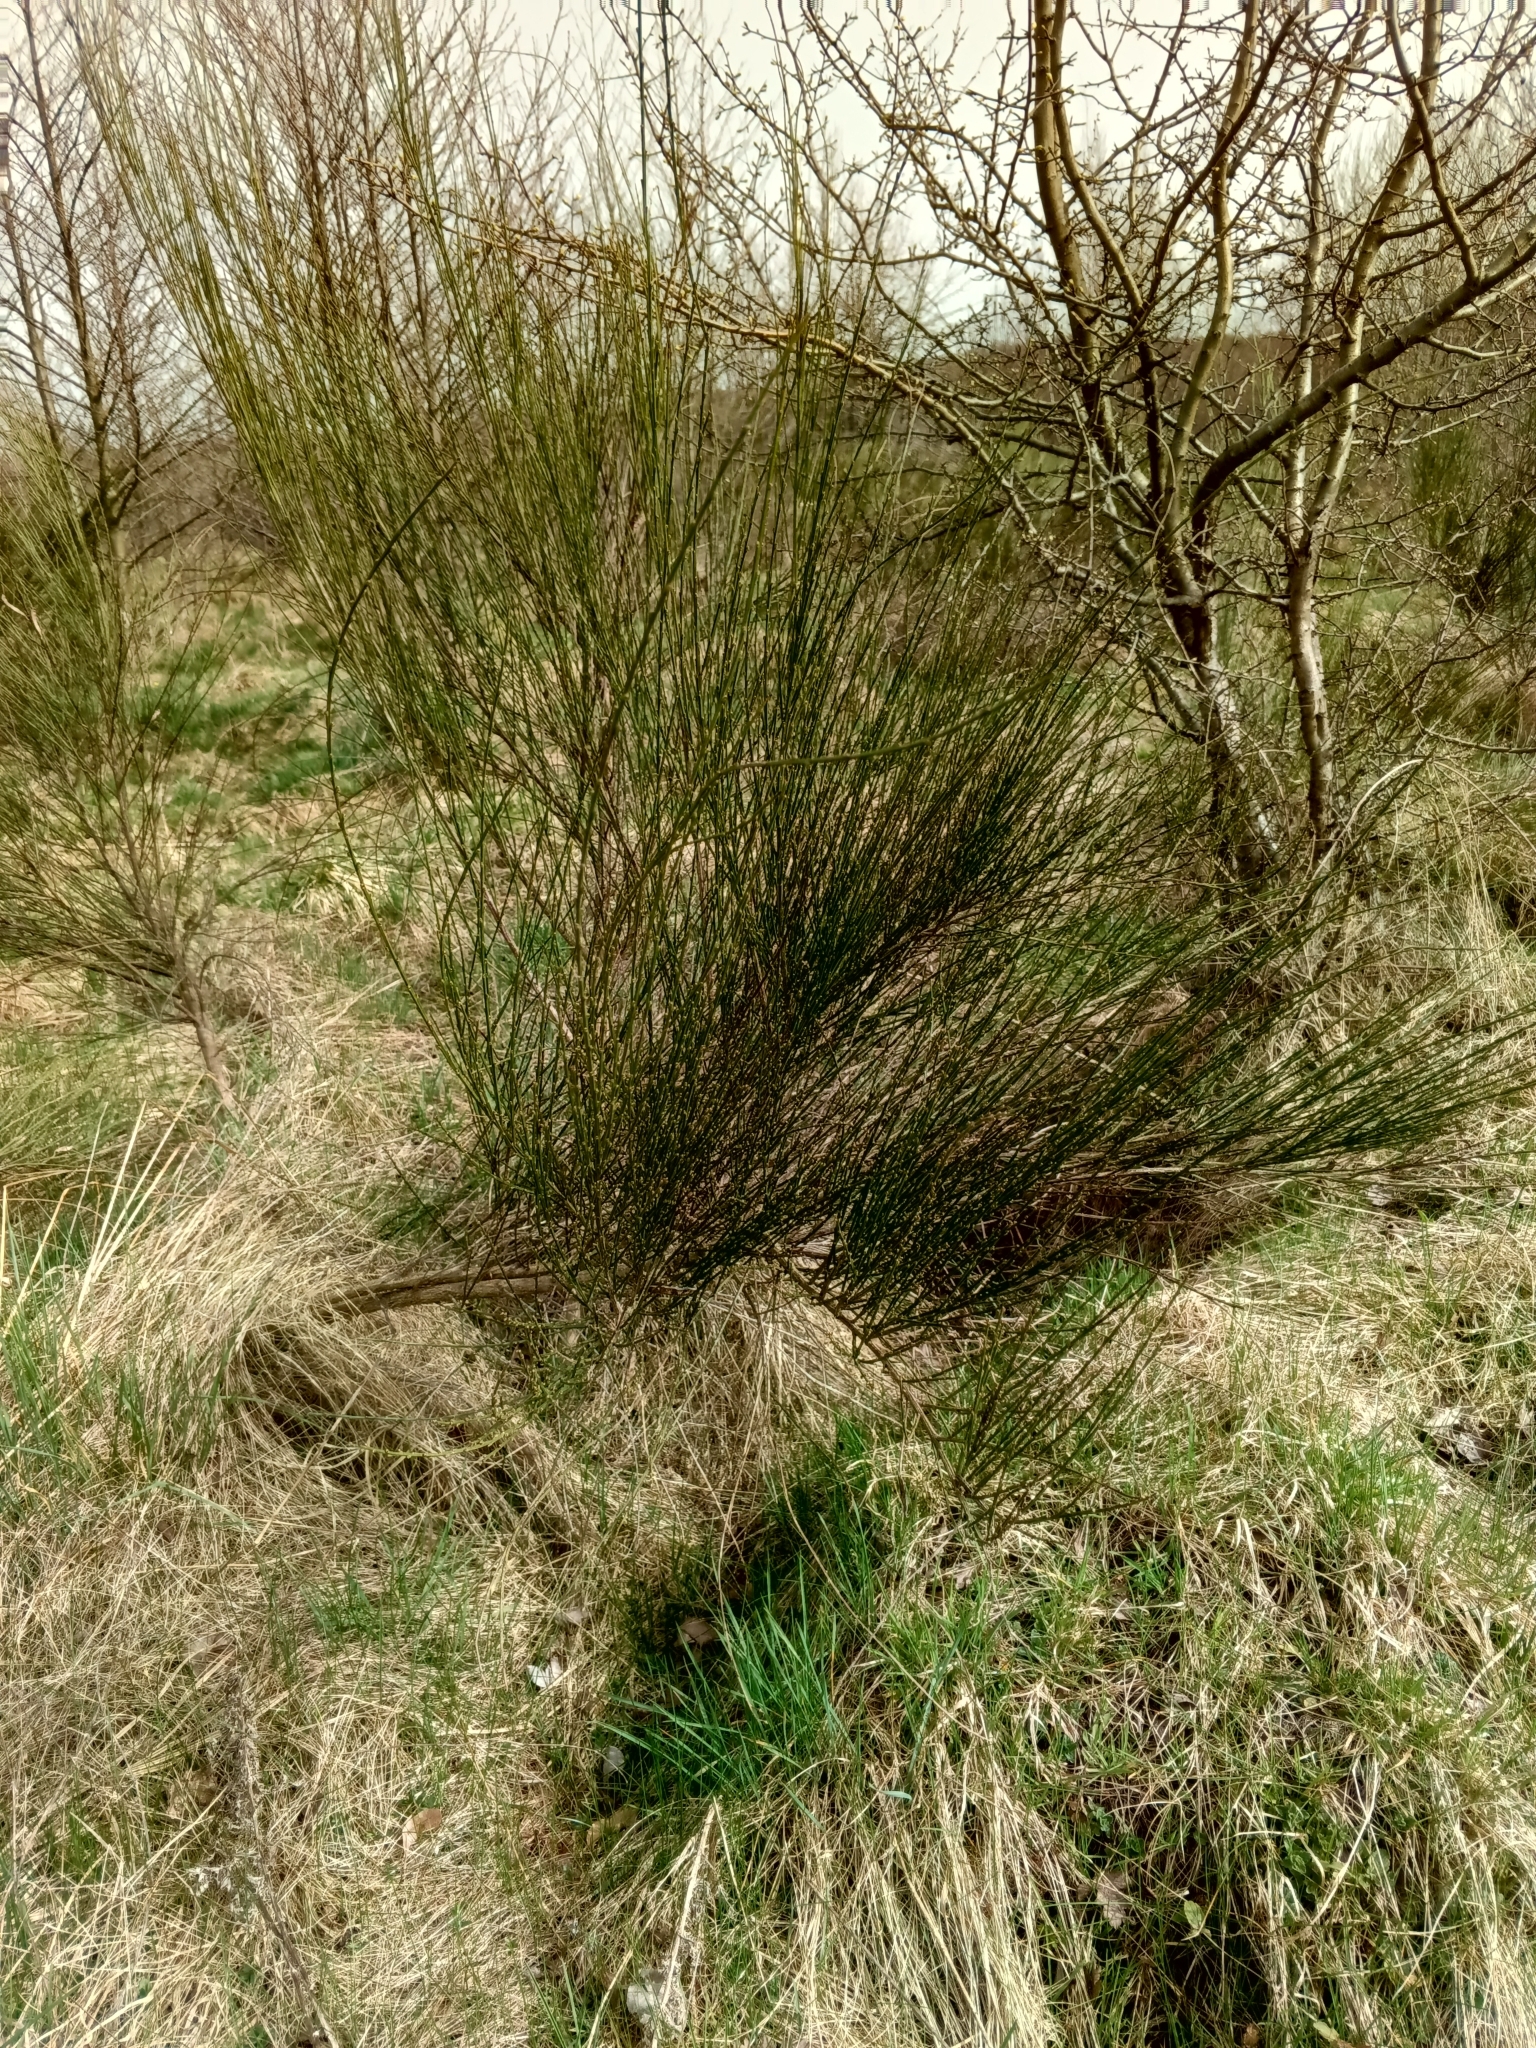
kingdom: Plantae
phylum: Tracheophyta
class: Magnoliopsida
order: Fabales
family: Fabaceae
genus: Cytisus
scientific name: Cytisus scoparius
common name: Scotch broom
